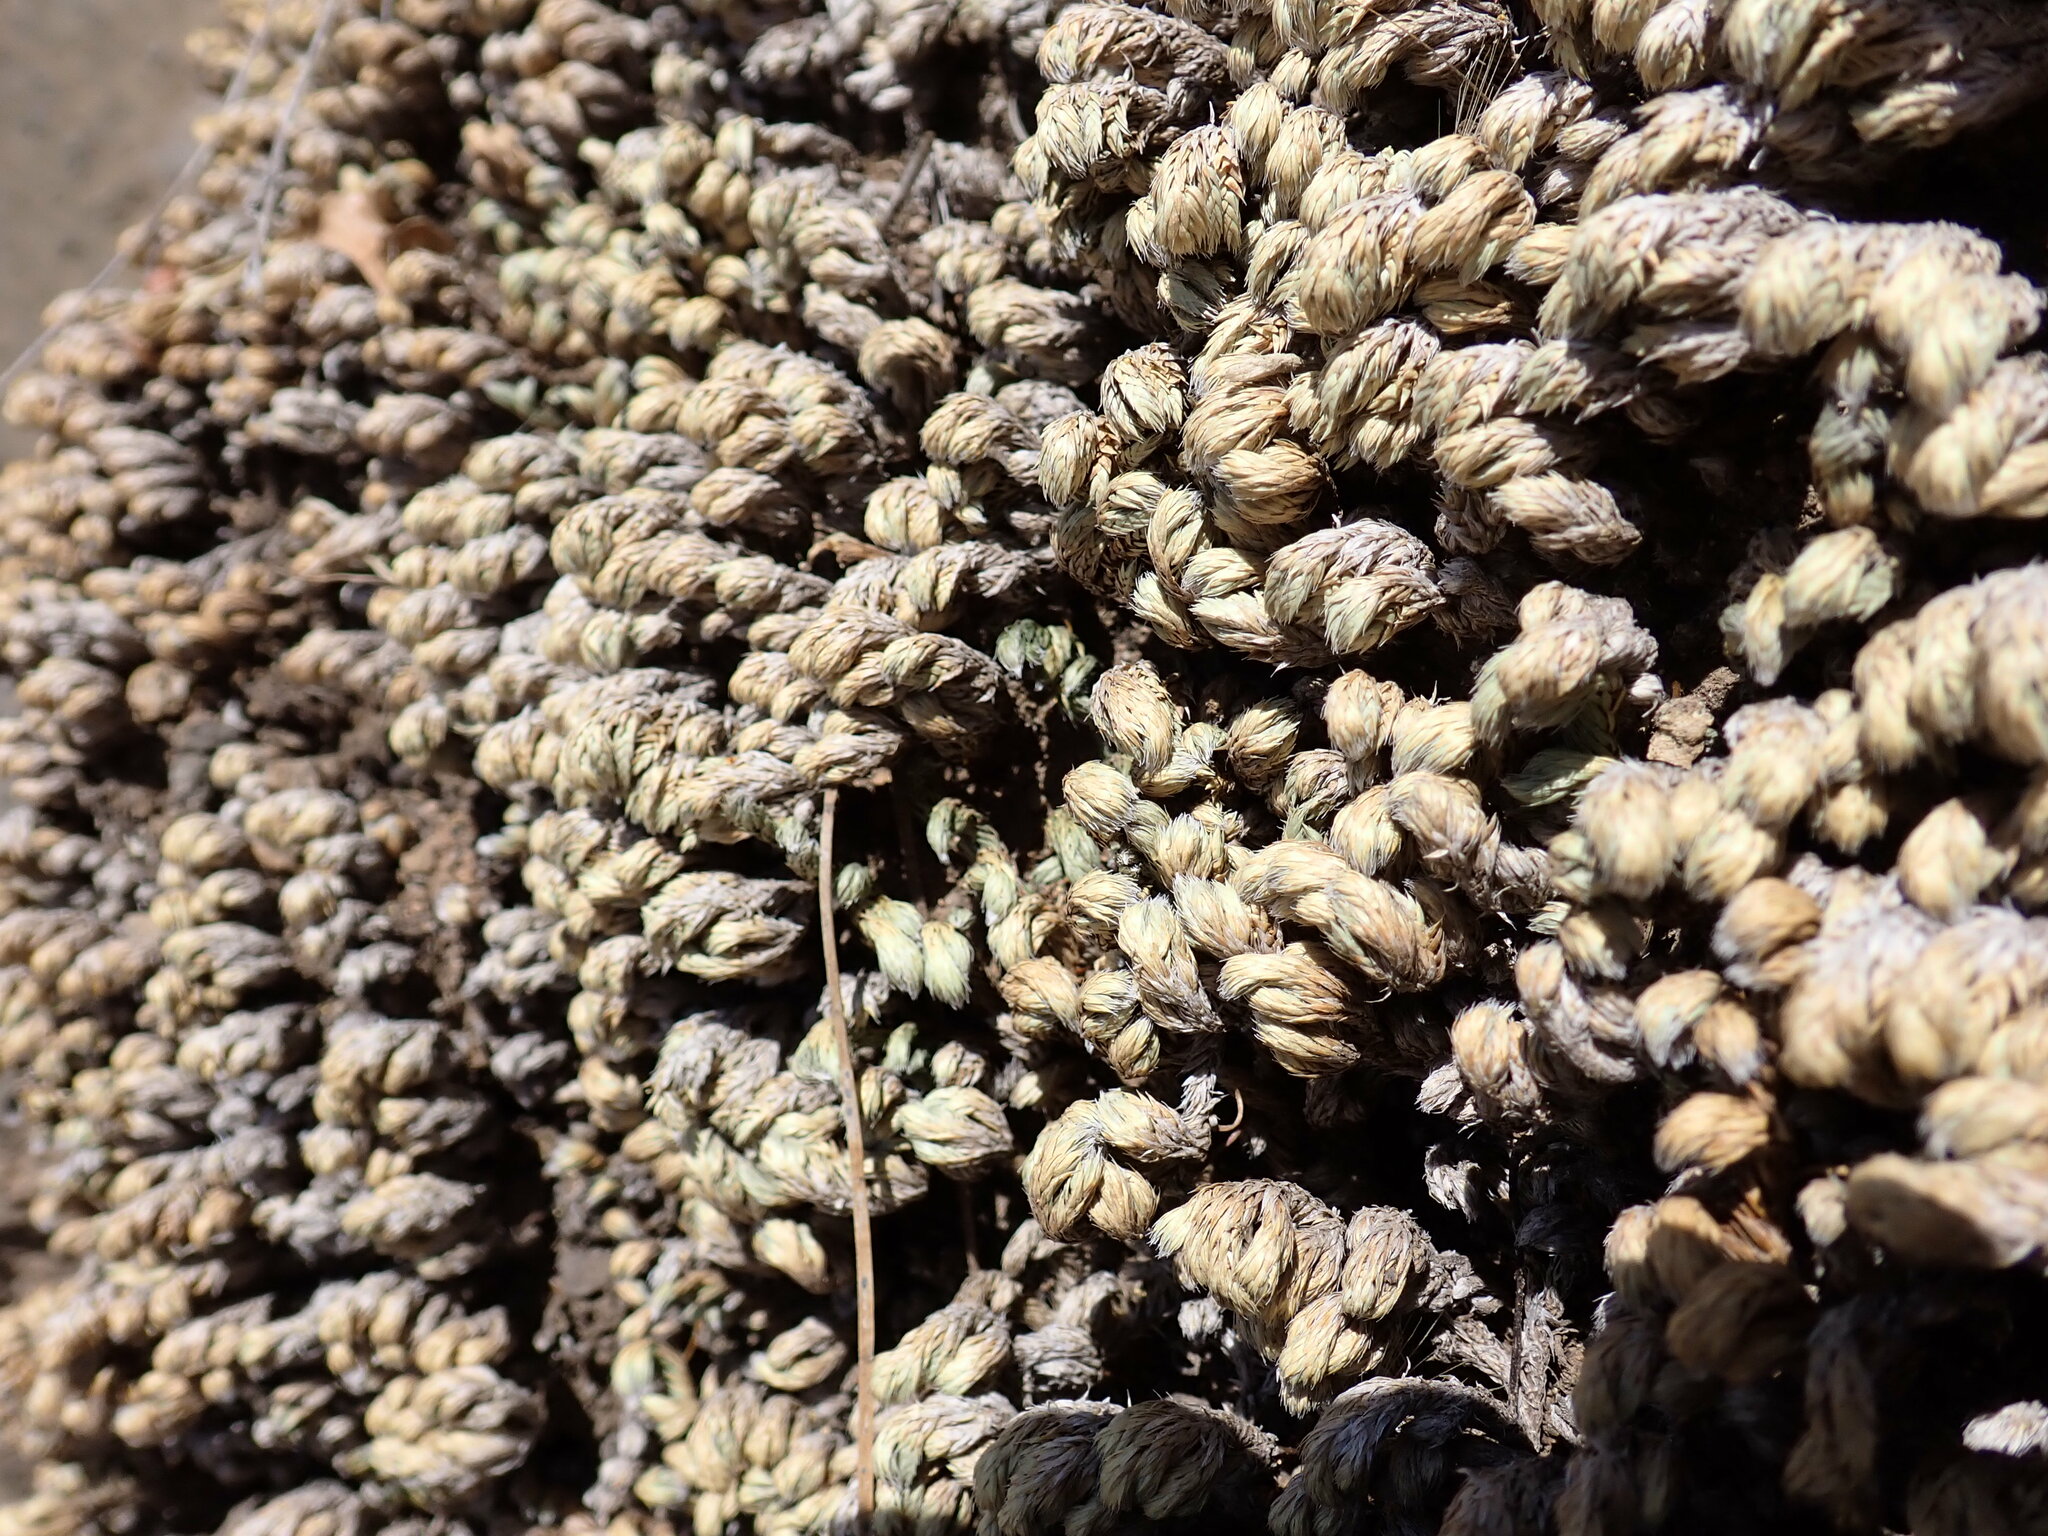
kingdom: Plantae
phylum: Tracheophyta
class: Lycopodiopsida
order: Selaginellales
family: Selaginellaceae
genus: Selaginella
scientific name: Selaginella hansenii
